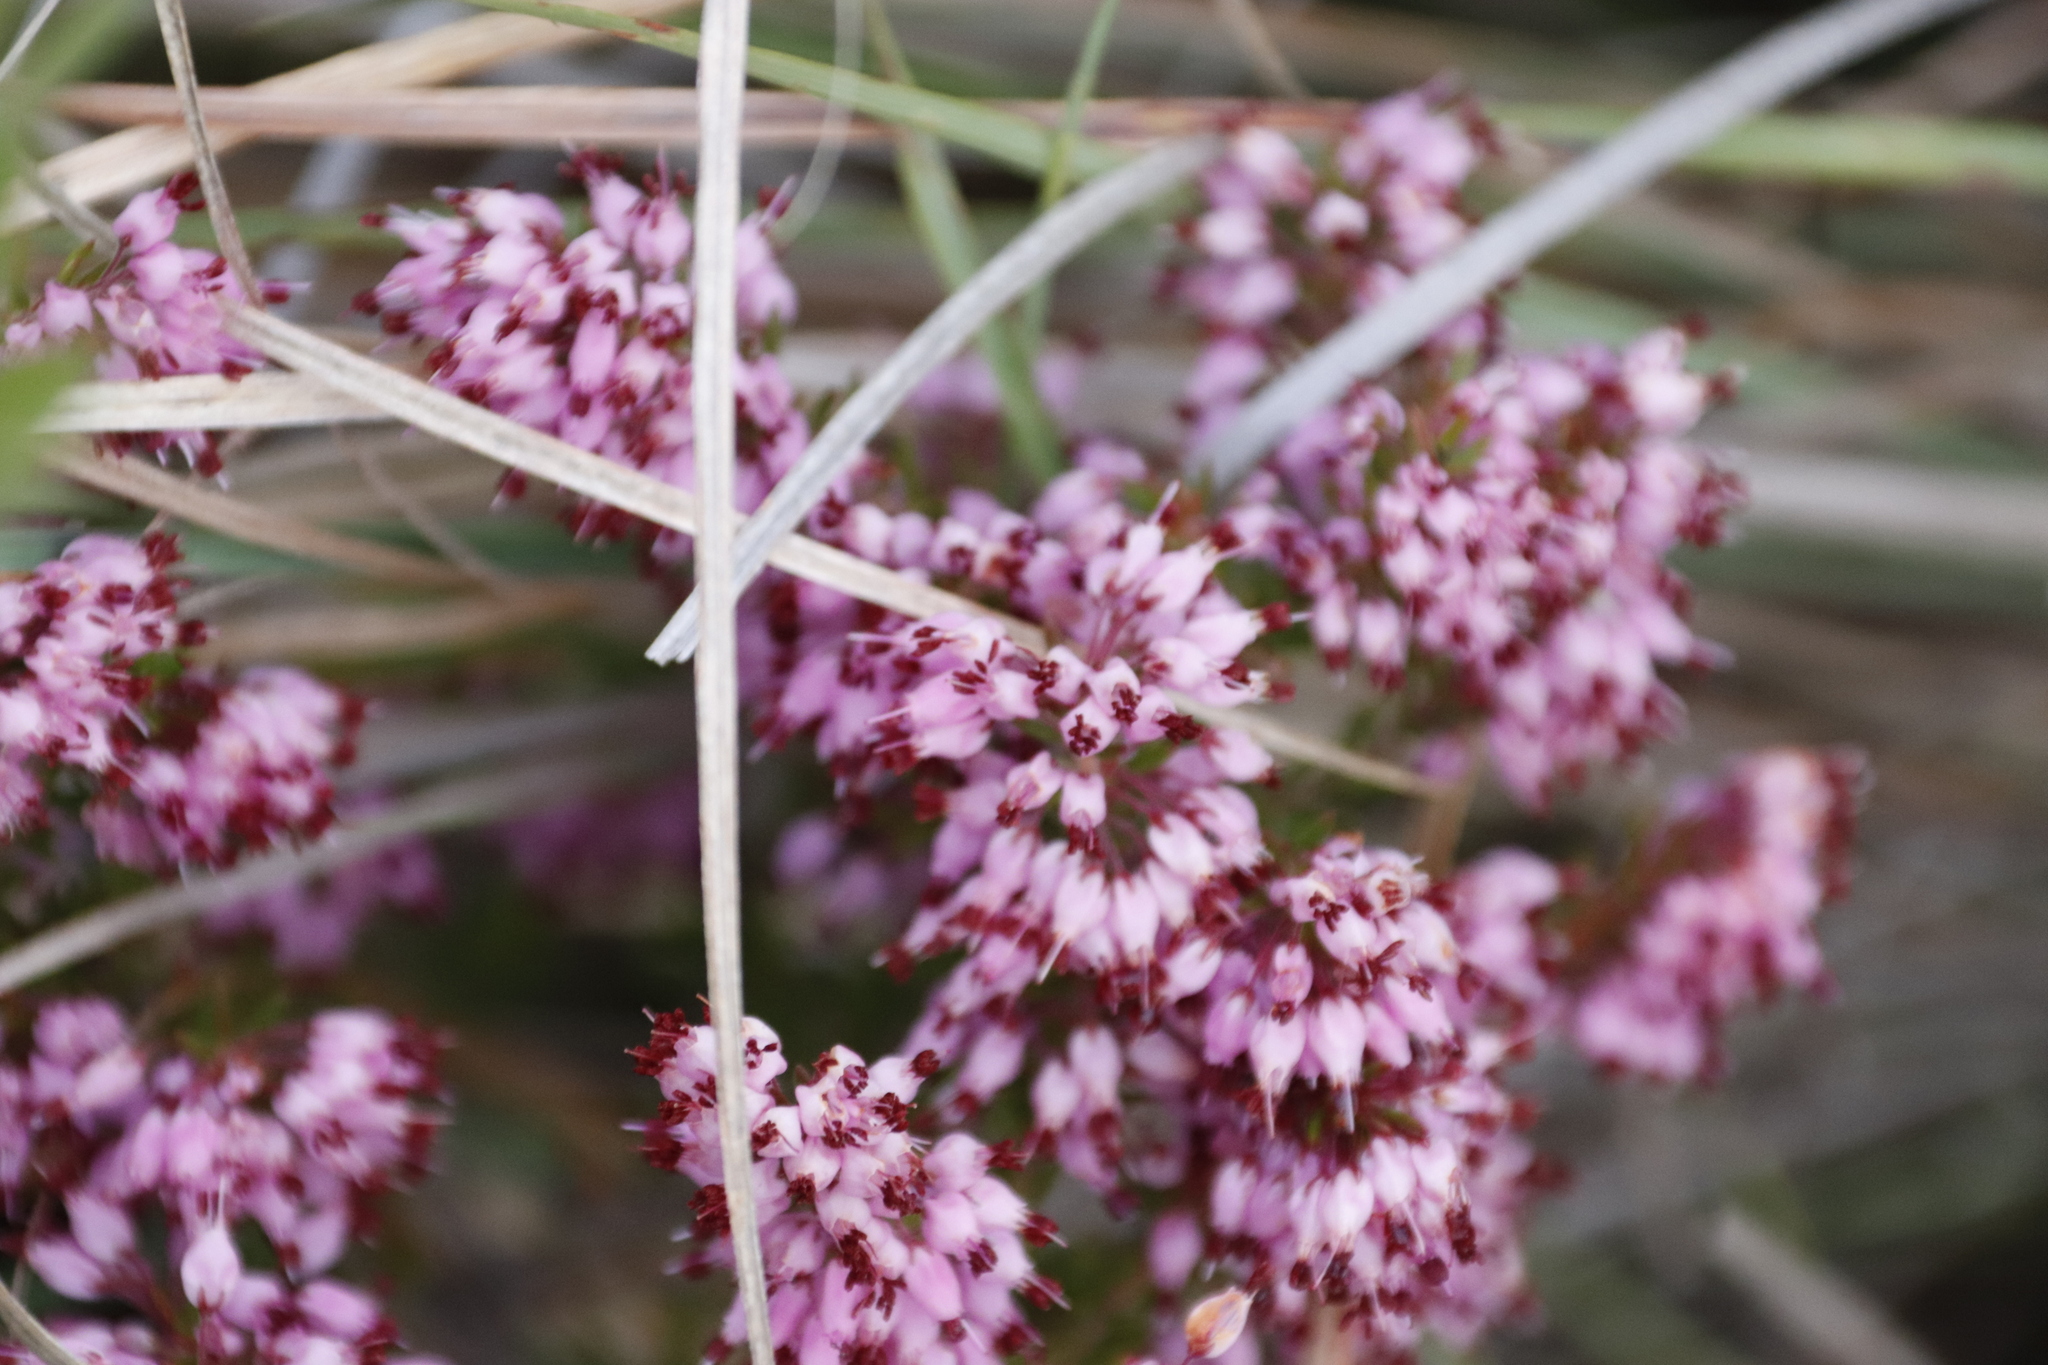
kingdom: Plantae
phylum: Tracheophyta
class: Magnoliopsida
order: Ericales
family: Ericaceae
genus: Erica
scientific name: Erica nudiflora
